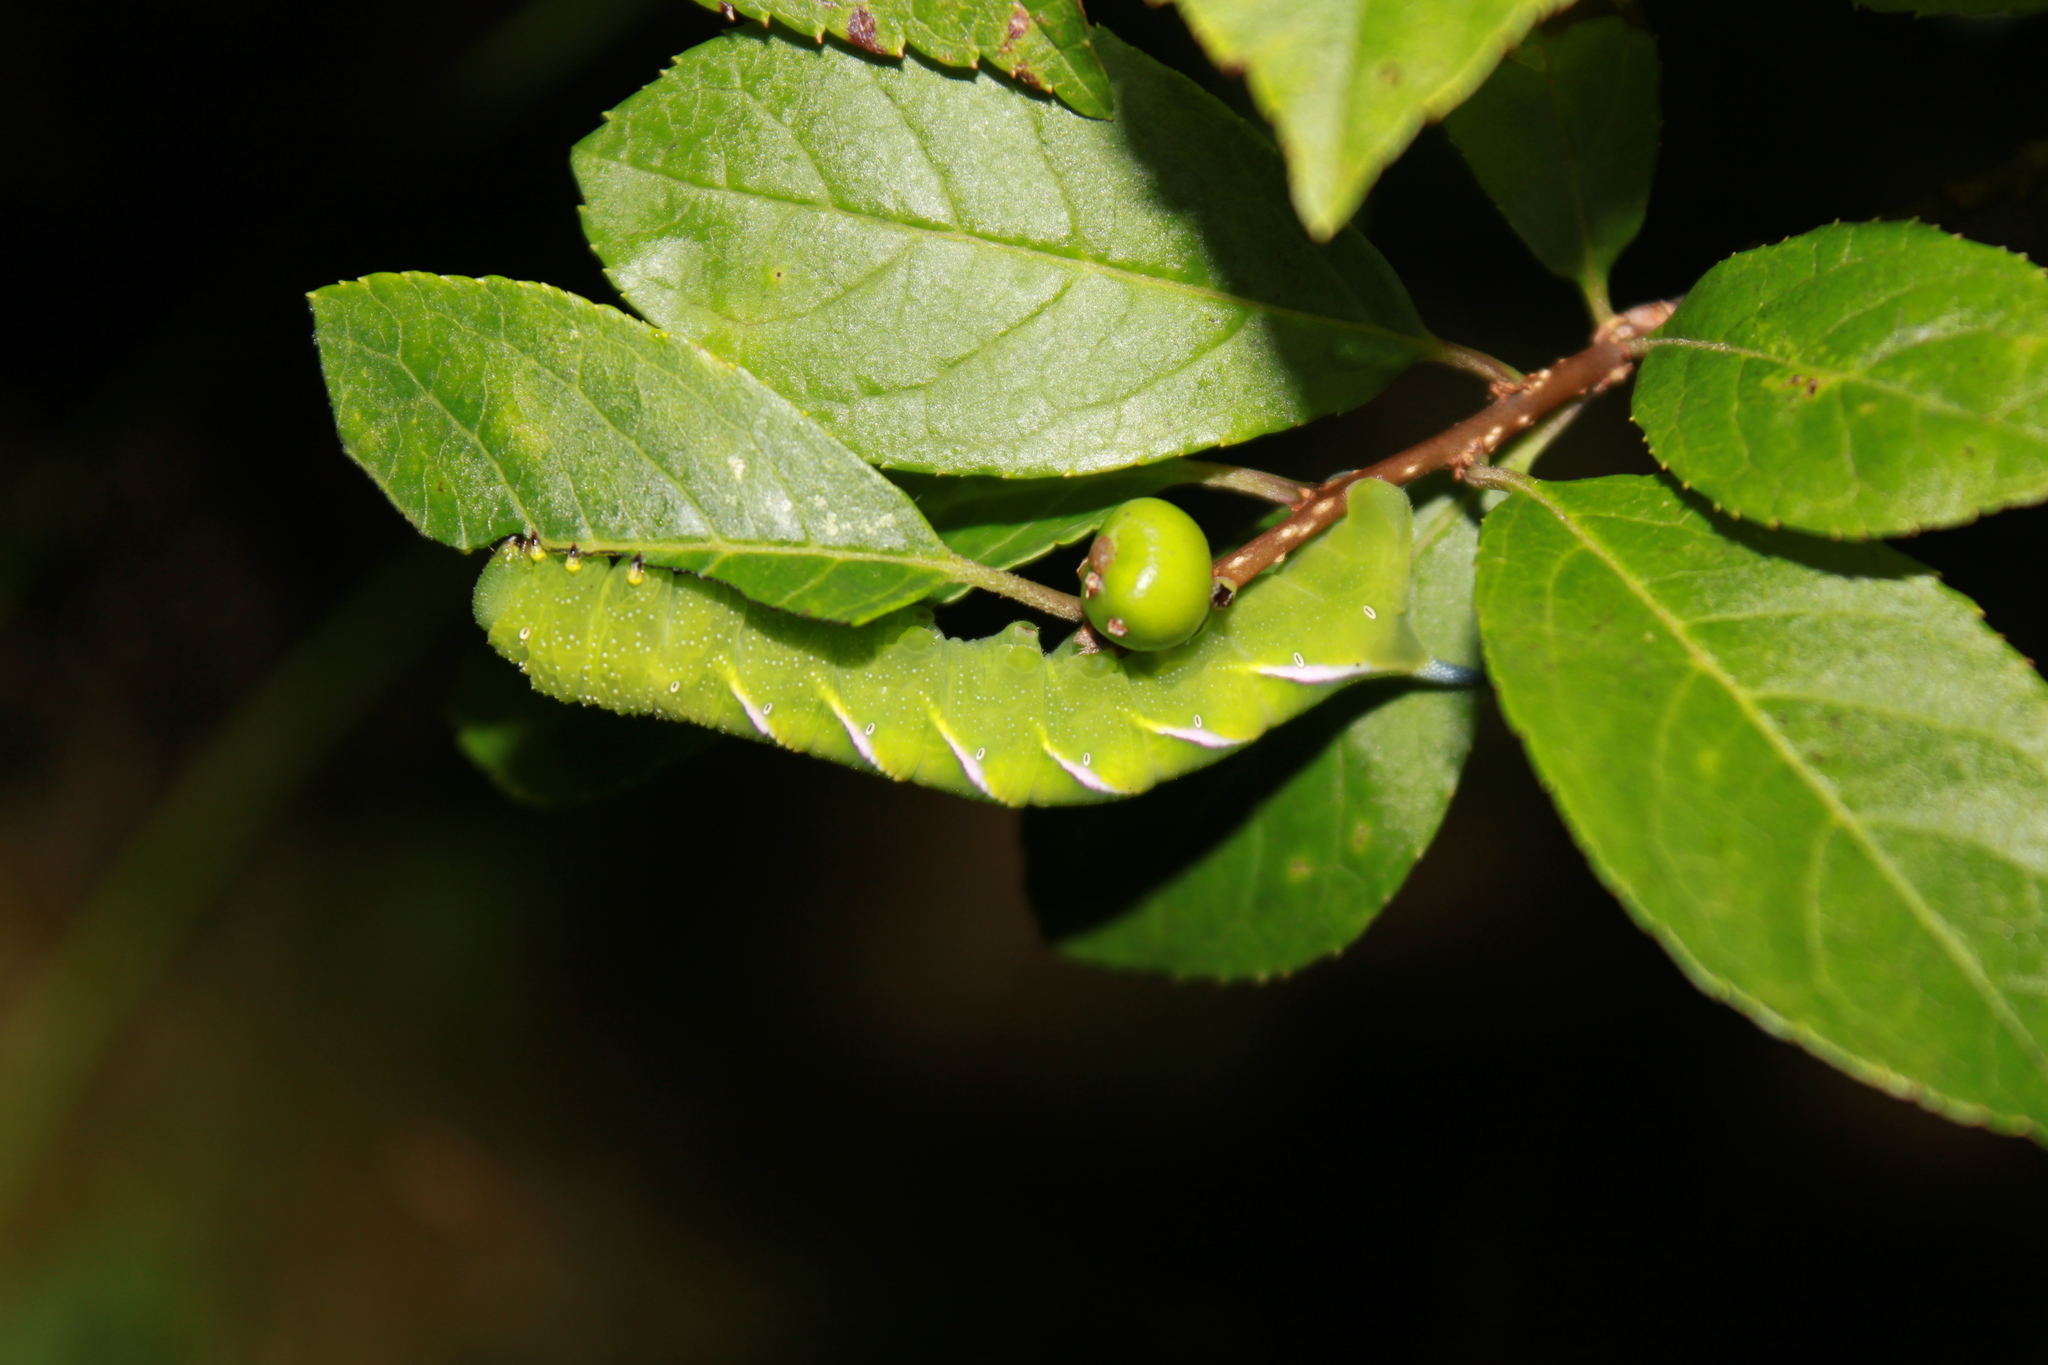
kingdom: Animalia
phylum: Arthropoda
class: Insecta
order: Lepidoptera
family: Sphingidae
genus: Dolba
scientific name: Dolba hyloeus
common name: Pawpaw sphinx
